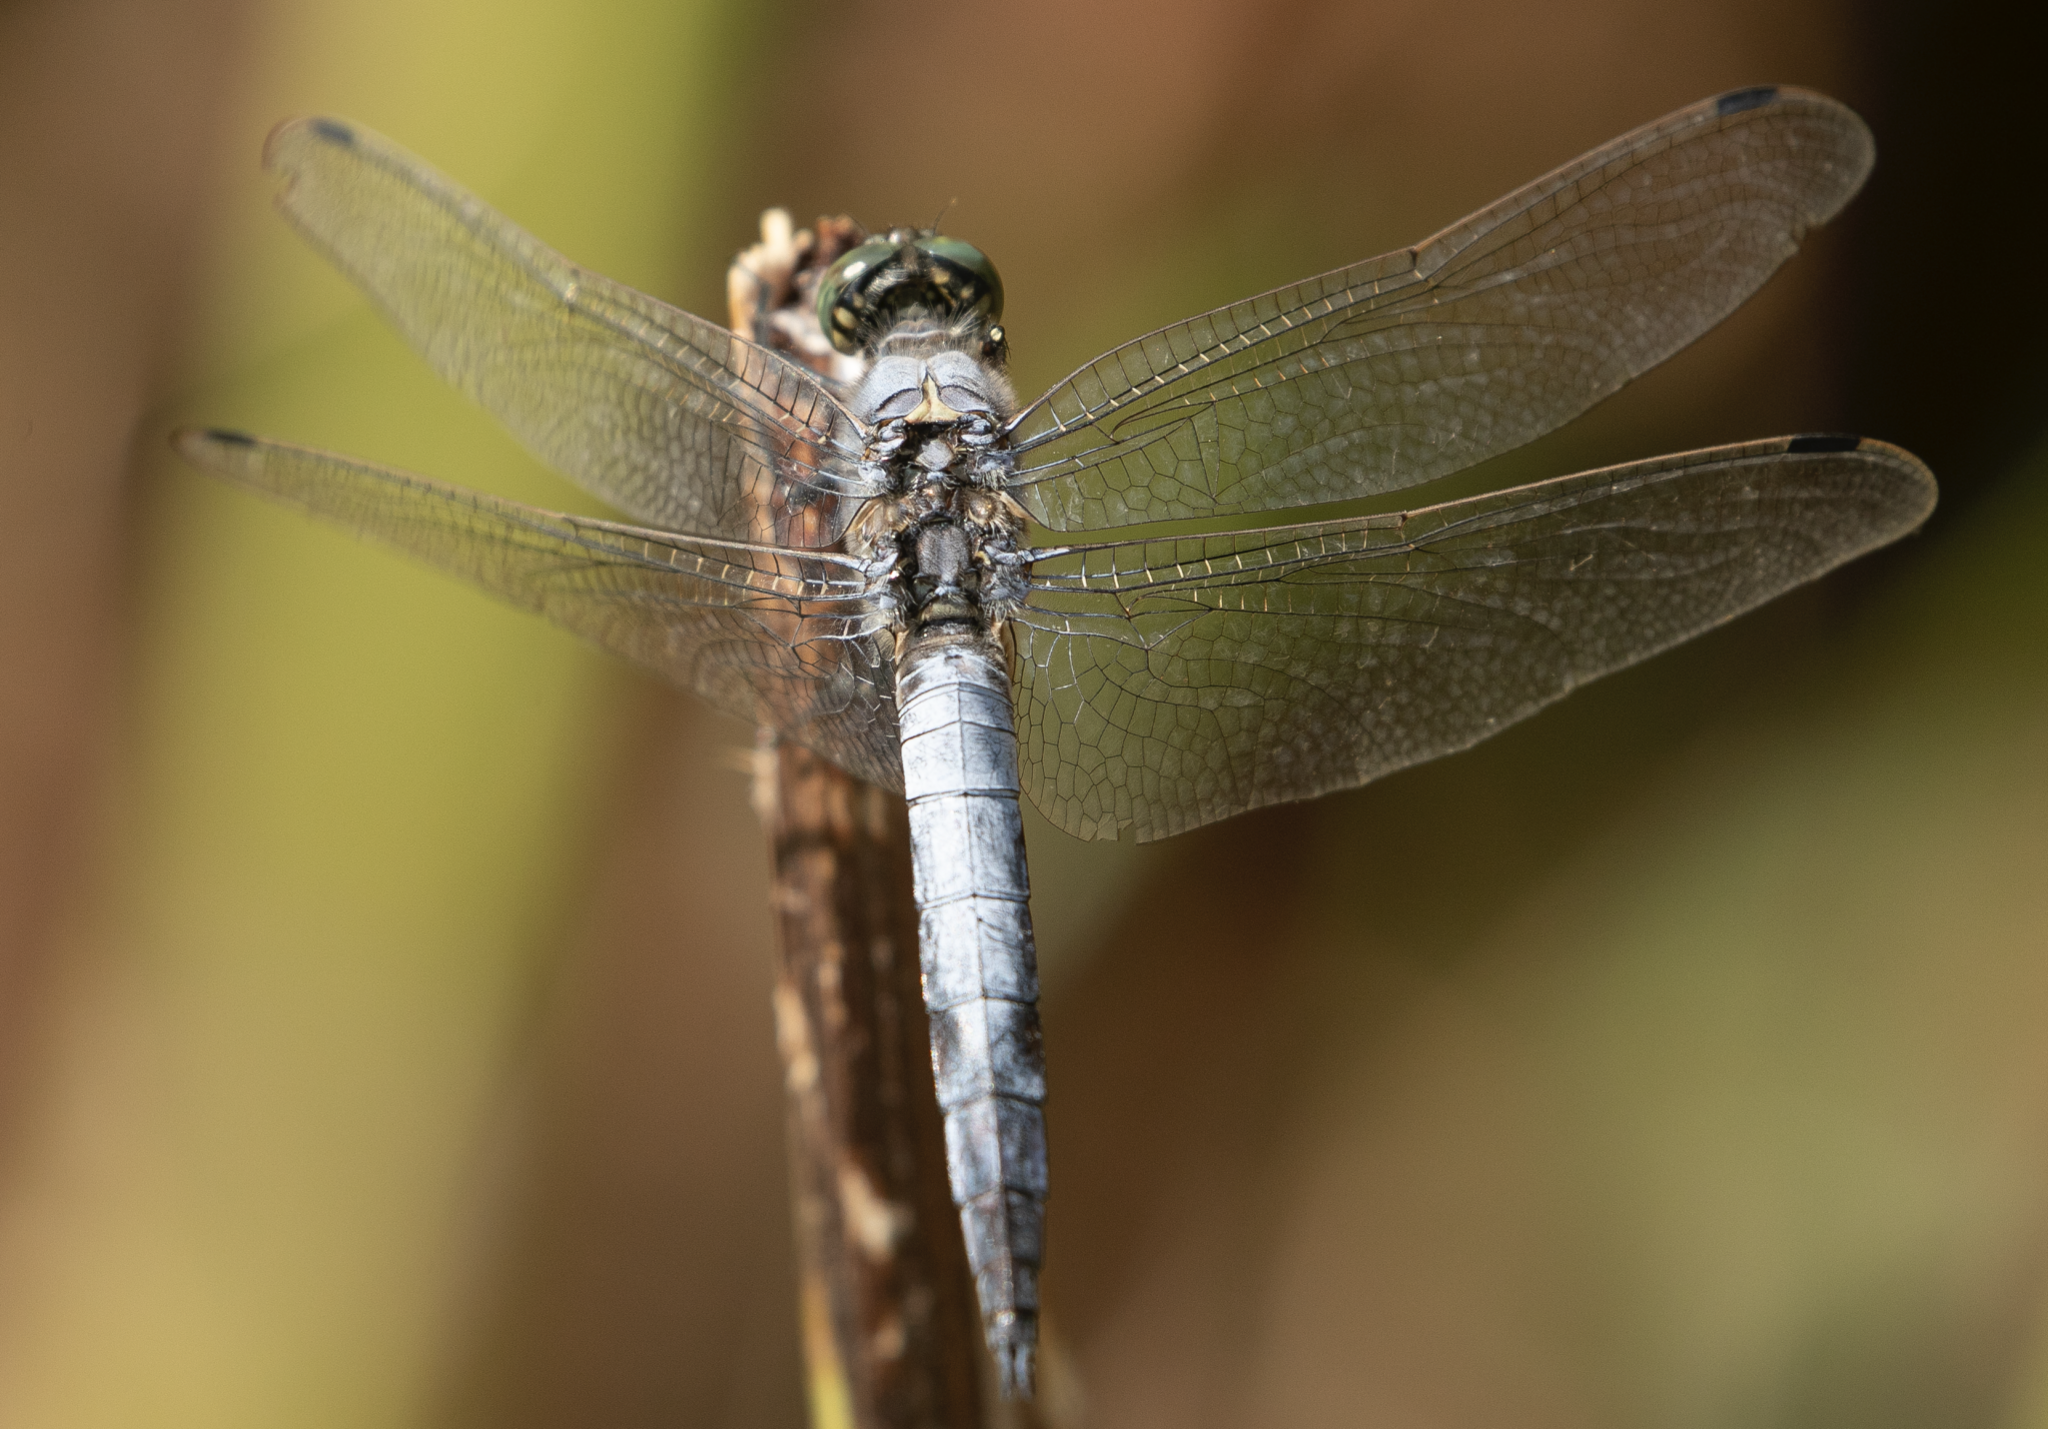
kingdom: Animalia
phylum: Arthropoda
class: Insecta
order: Odonata
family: Libellulidae
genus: Orthetrum
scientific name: Orthetrum cancellatum
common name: Black-tailed skimmer
